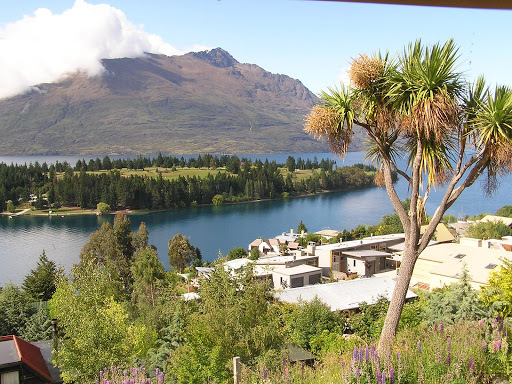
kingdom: Plantae
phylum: Tracheophyta
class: Liliopsida
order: Asparagales
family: Asparagaceae
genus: Cordyline
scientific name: Cordyline australis
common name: Cabbage-palm
